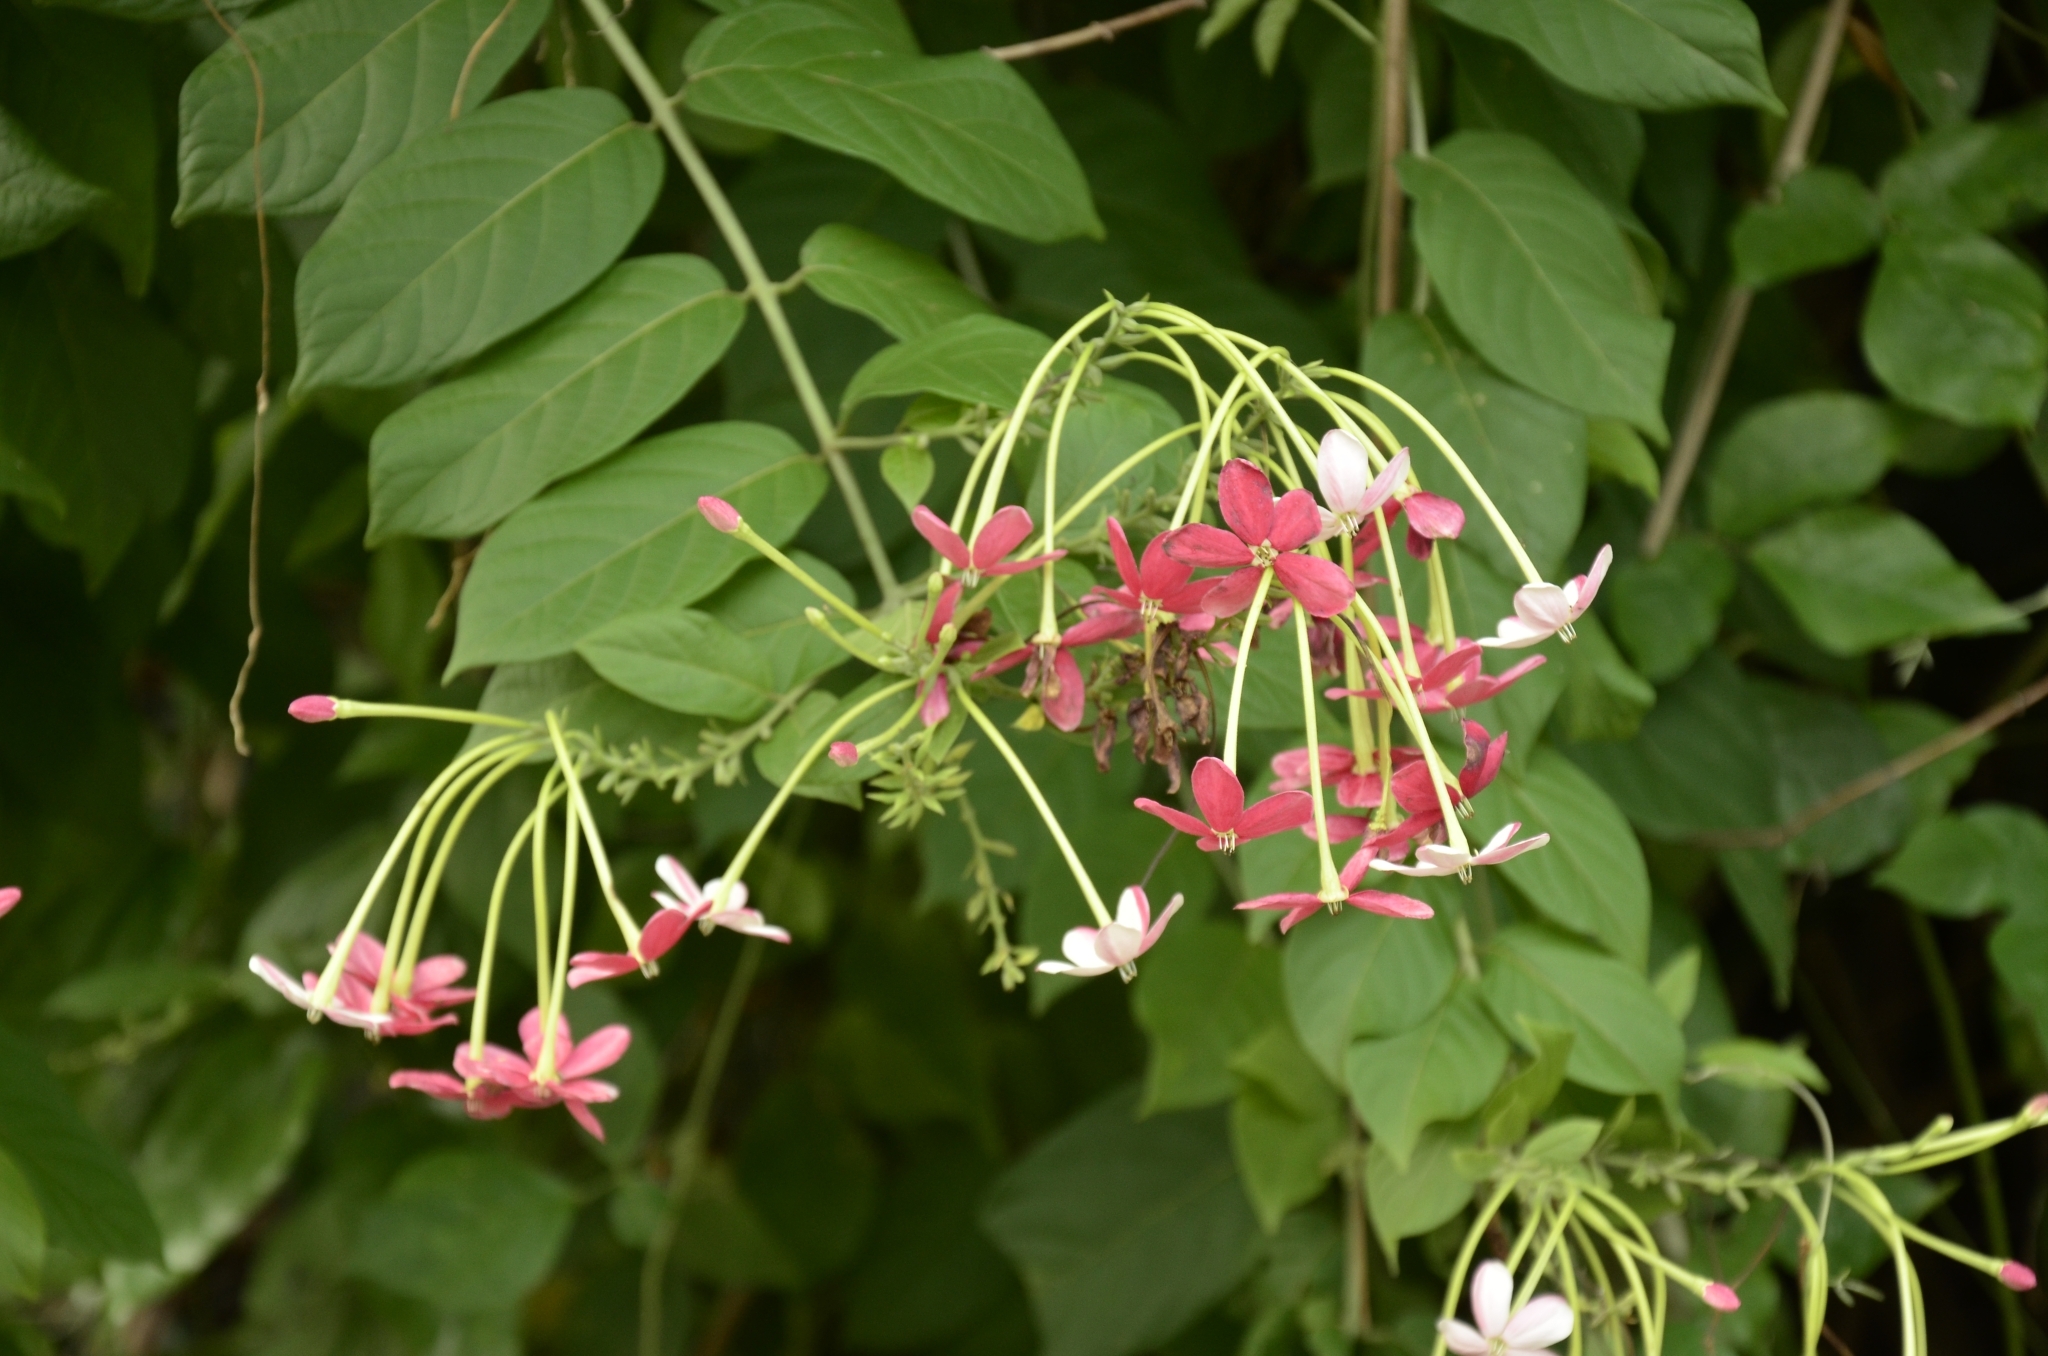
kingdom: Plantae
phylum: Tracheophyta
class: Magnoliopsida
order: Myrtales
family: Combretaceae
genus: Combretum
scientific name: Combretum indicum
